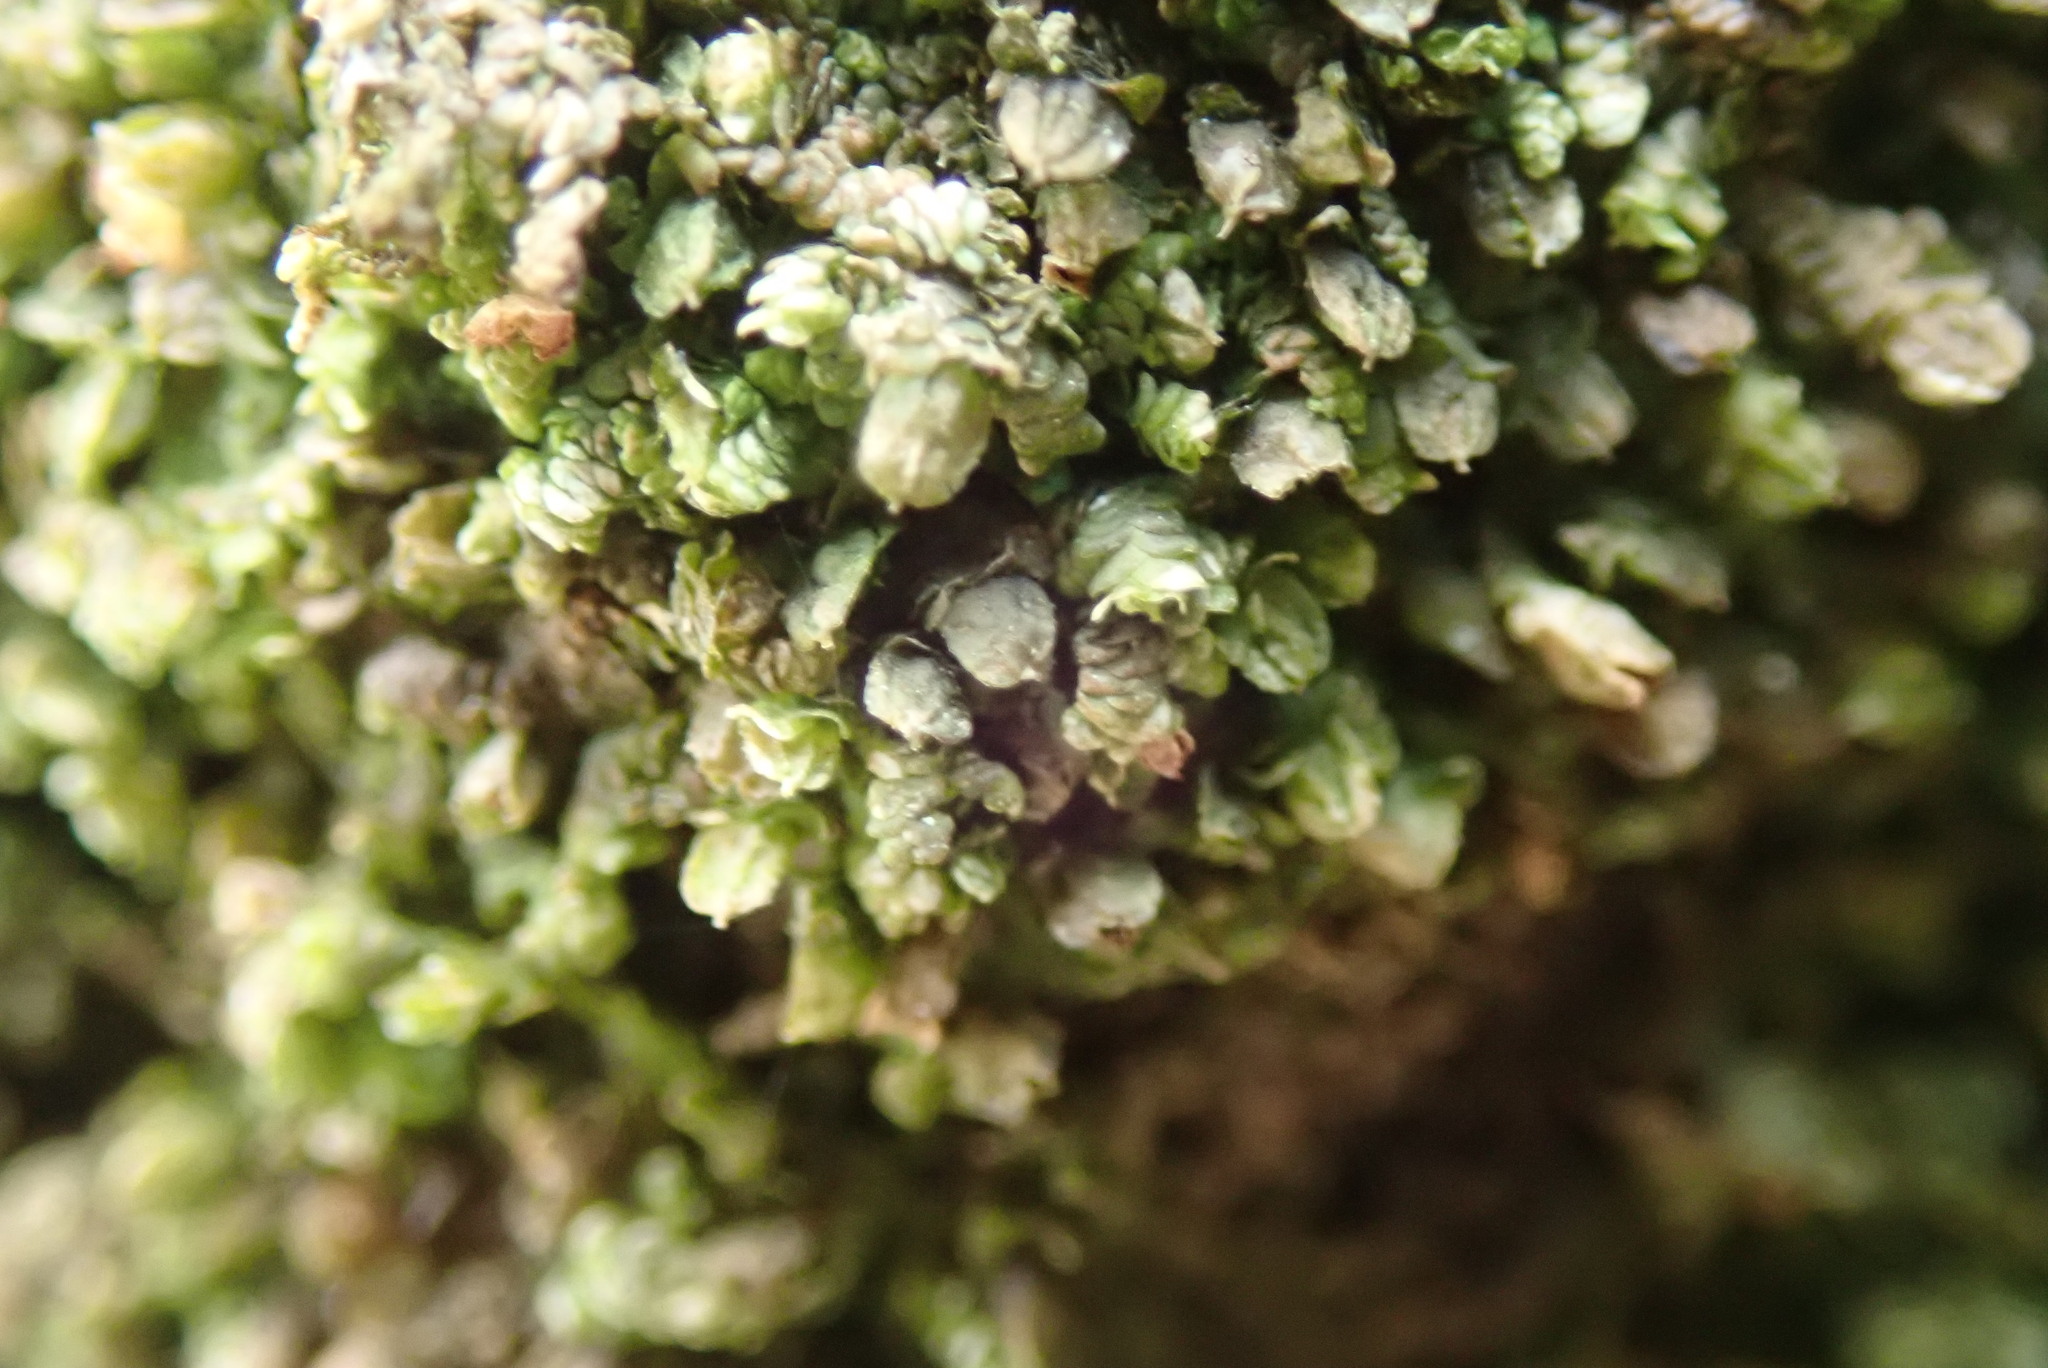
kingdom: Plantae
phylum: Marchantiophyta
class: Jungermanniopsida
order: Porellales
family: Frullaniaceae
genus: Frullania
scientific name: Frullania dilatata
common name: Dilated scalewort
